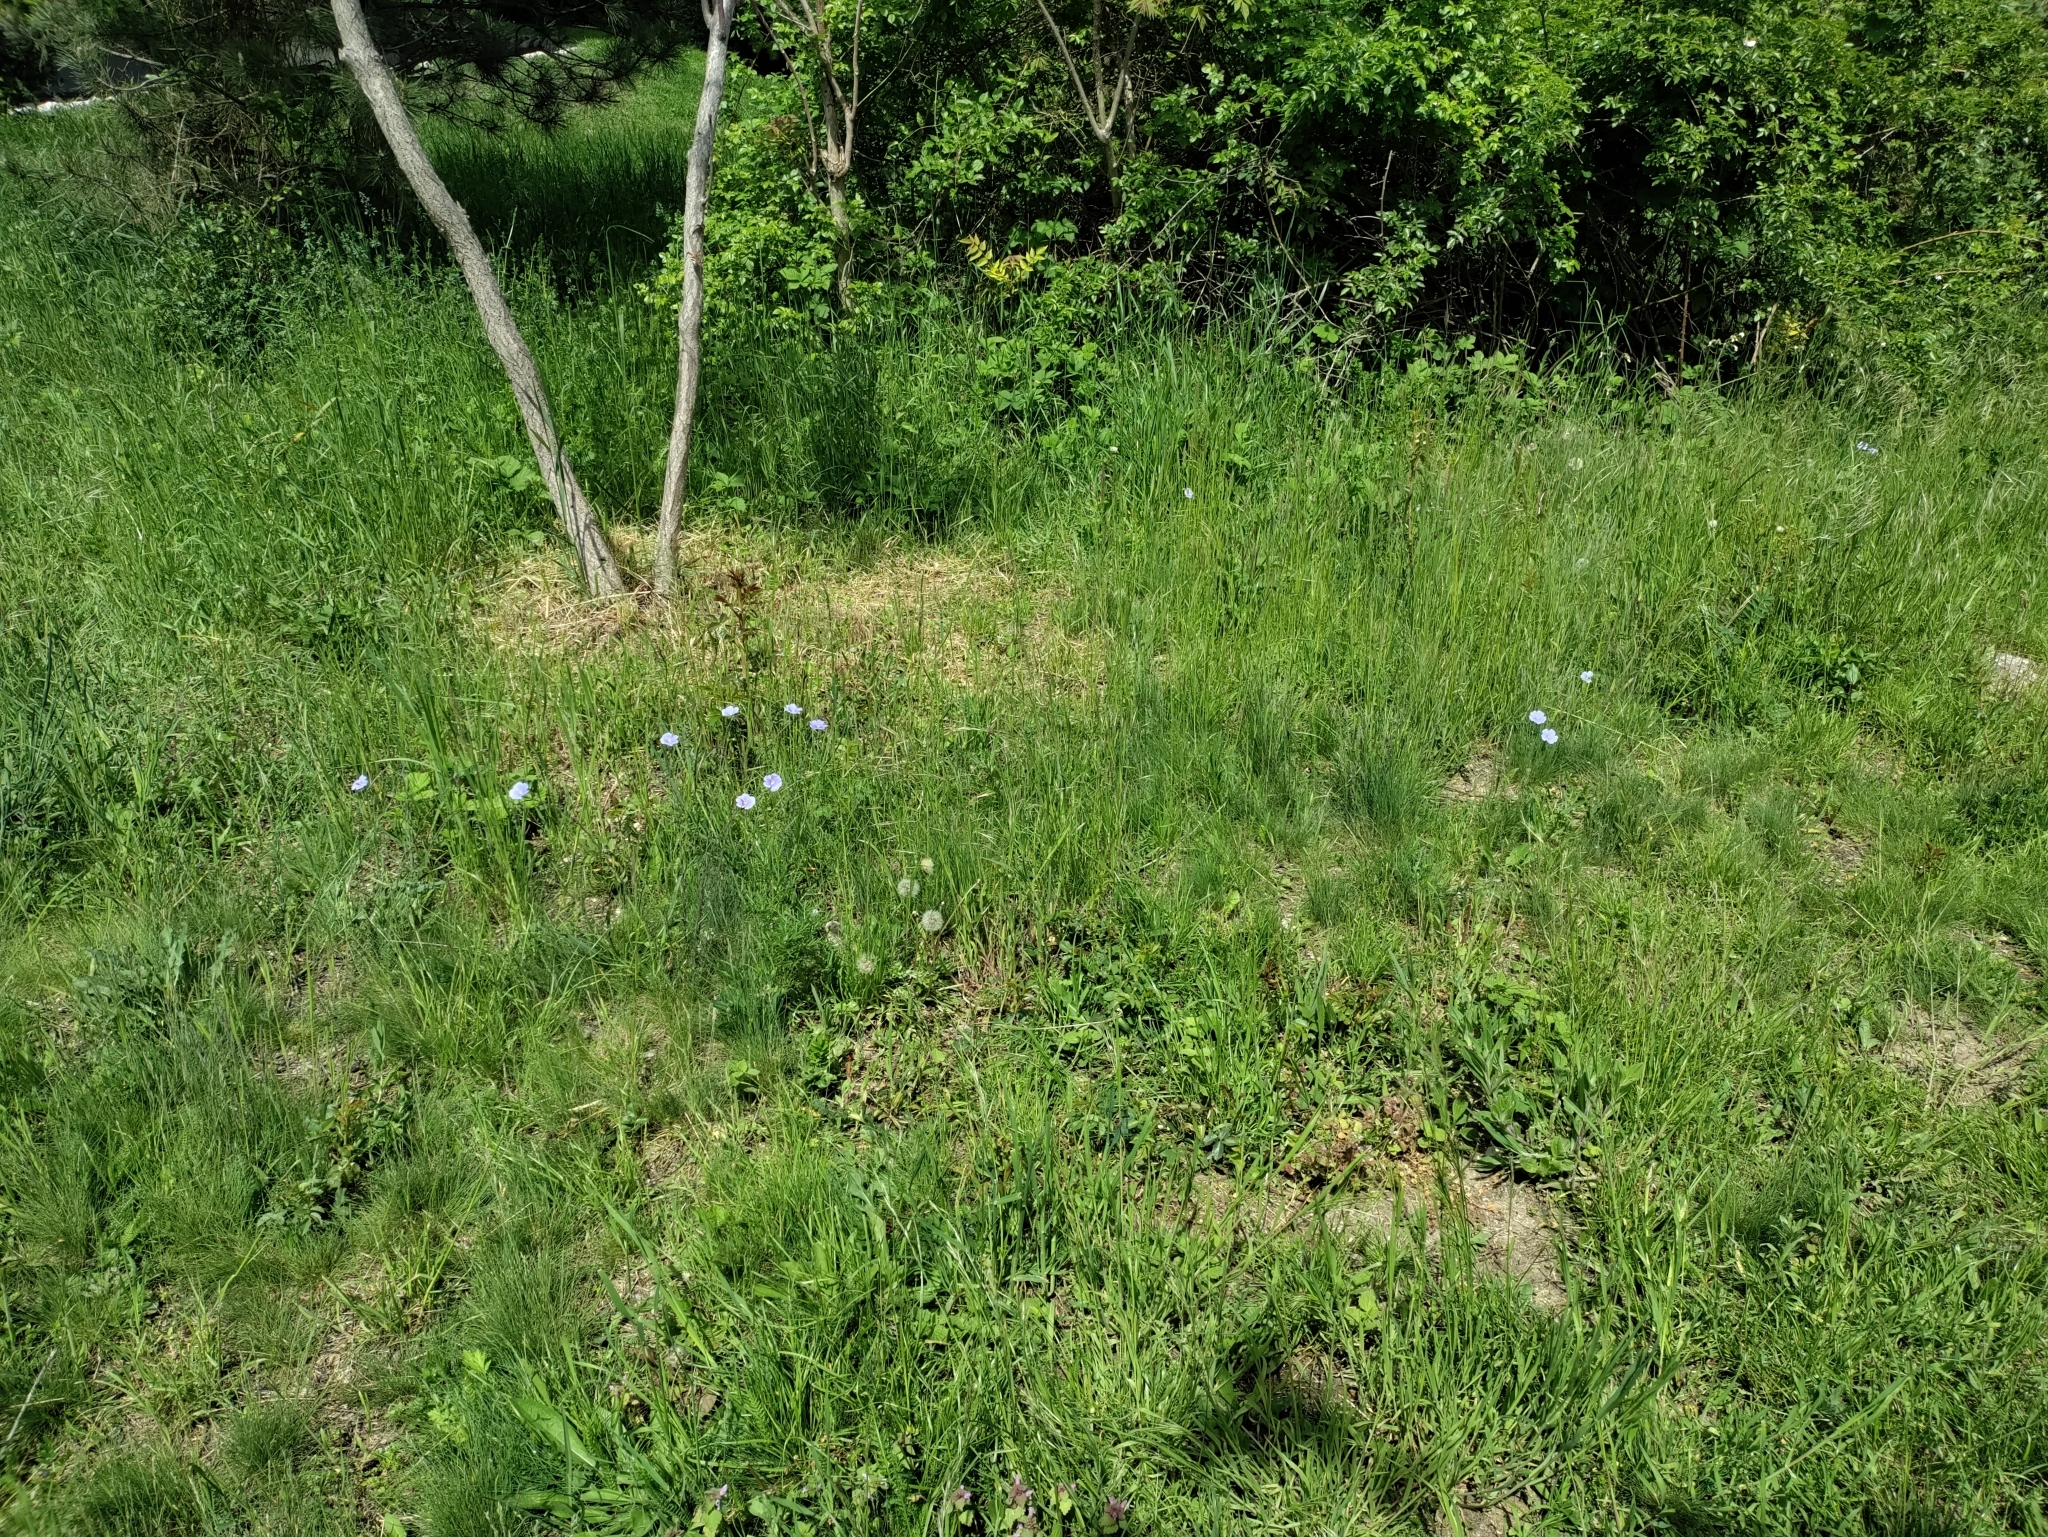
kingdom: Plantae
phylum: Tracheophyta
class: Magnoliopsida
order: Malpighiales
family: Linaceae
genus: Linum
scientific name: Linum austriacum
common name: Austrian flax
